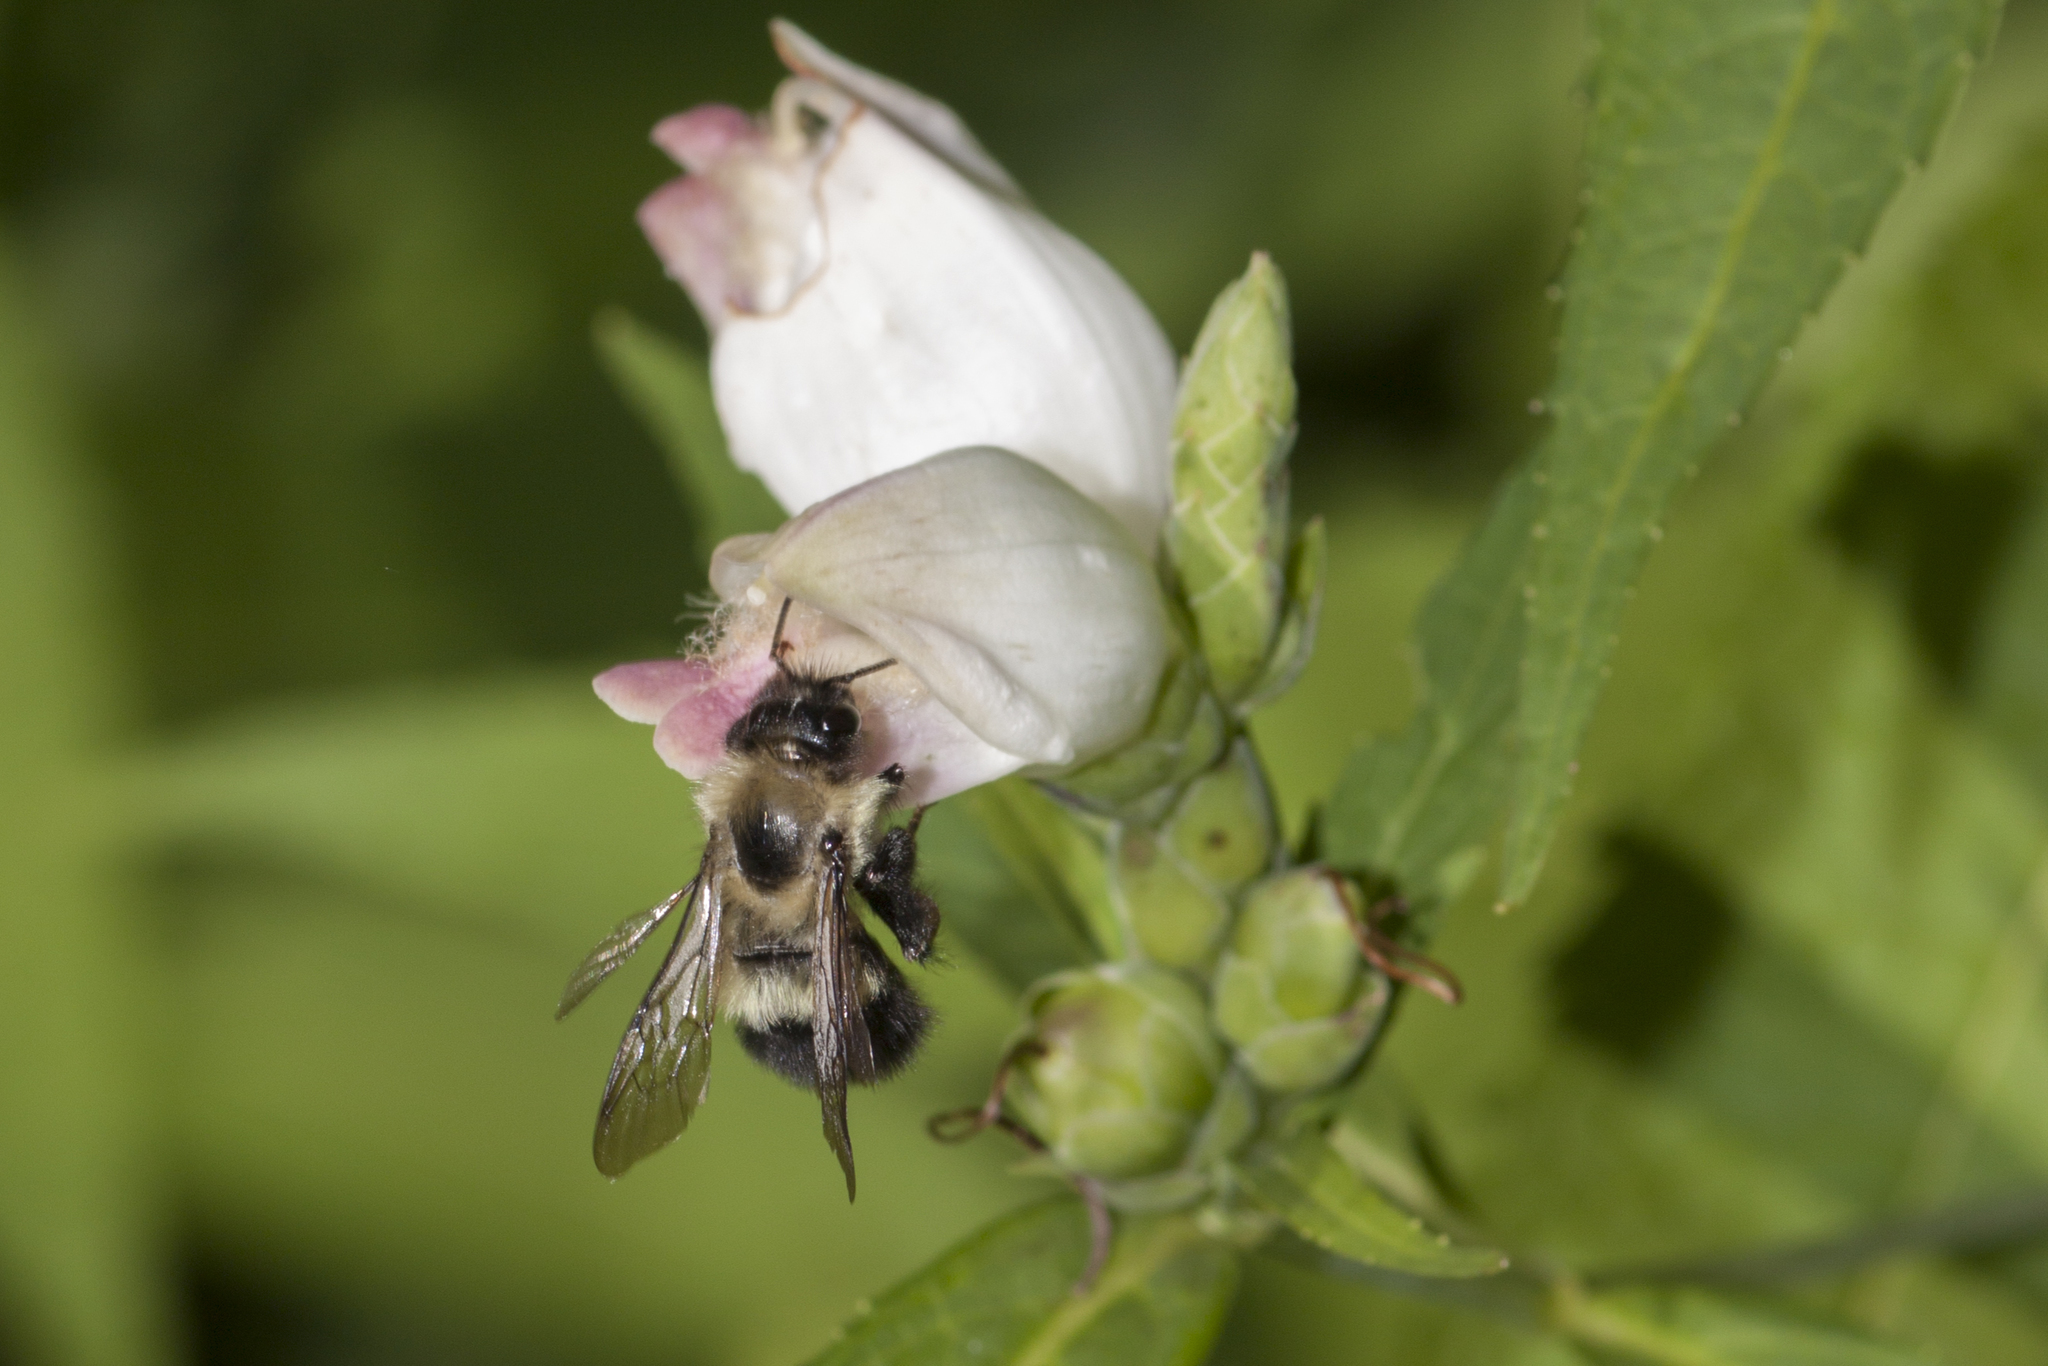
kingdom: Animalia
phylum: Arthropoda
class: Insecta
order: Hymenoptera
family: Apidae
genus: Pyrobombus
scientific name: Pyrobombus
